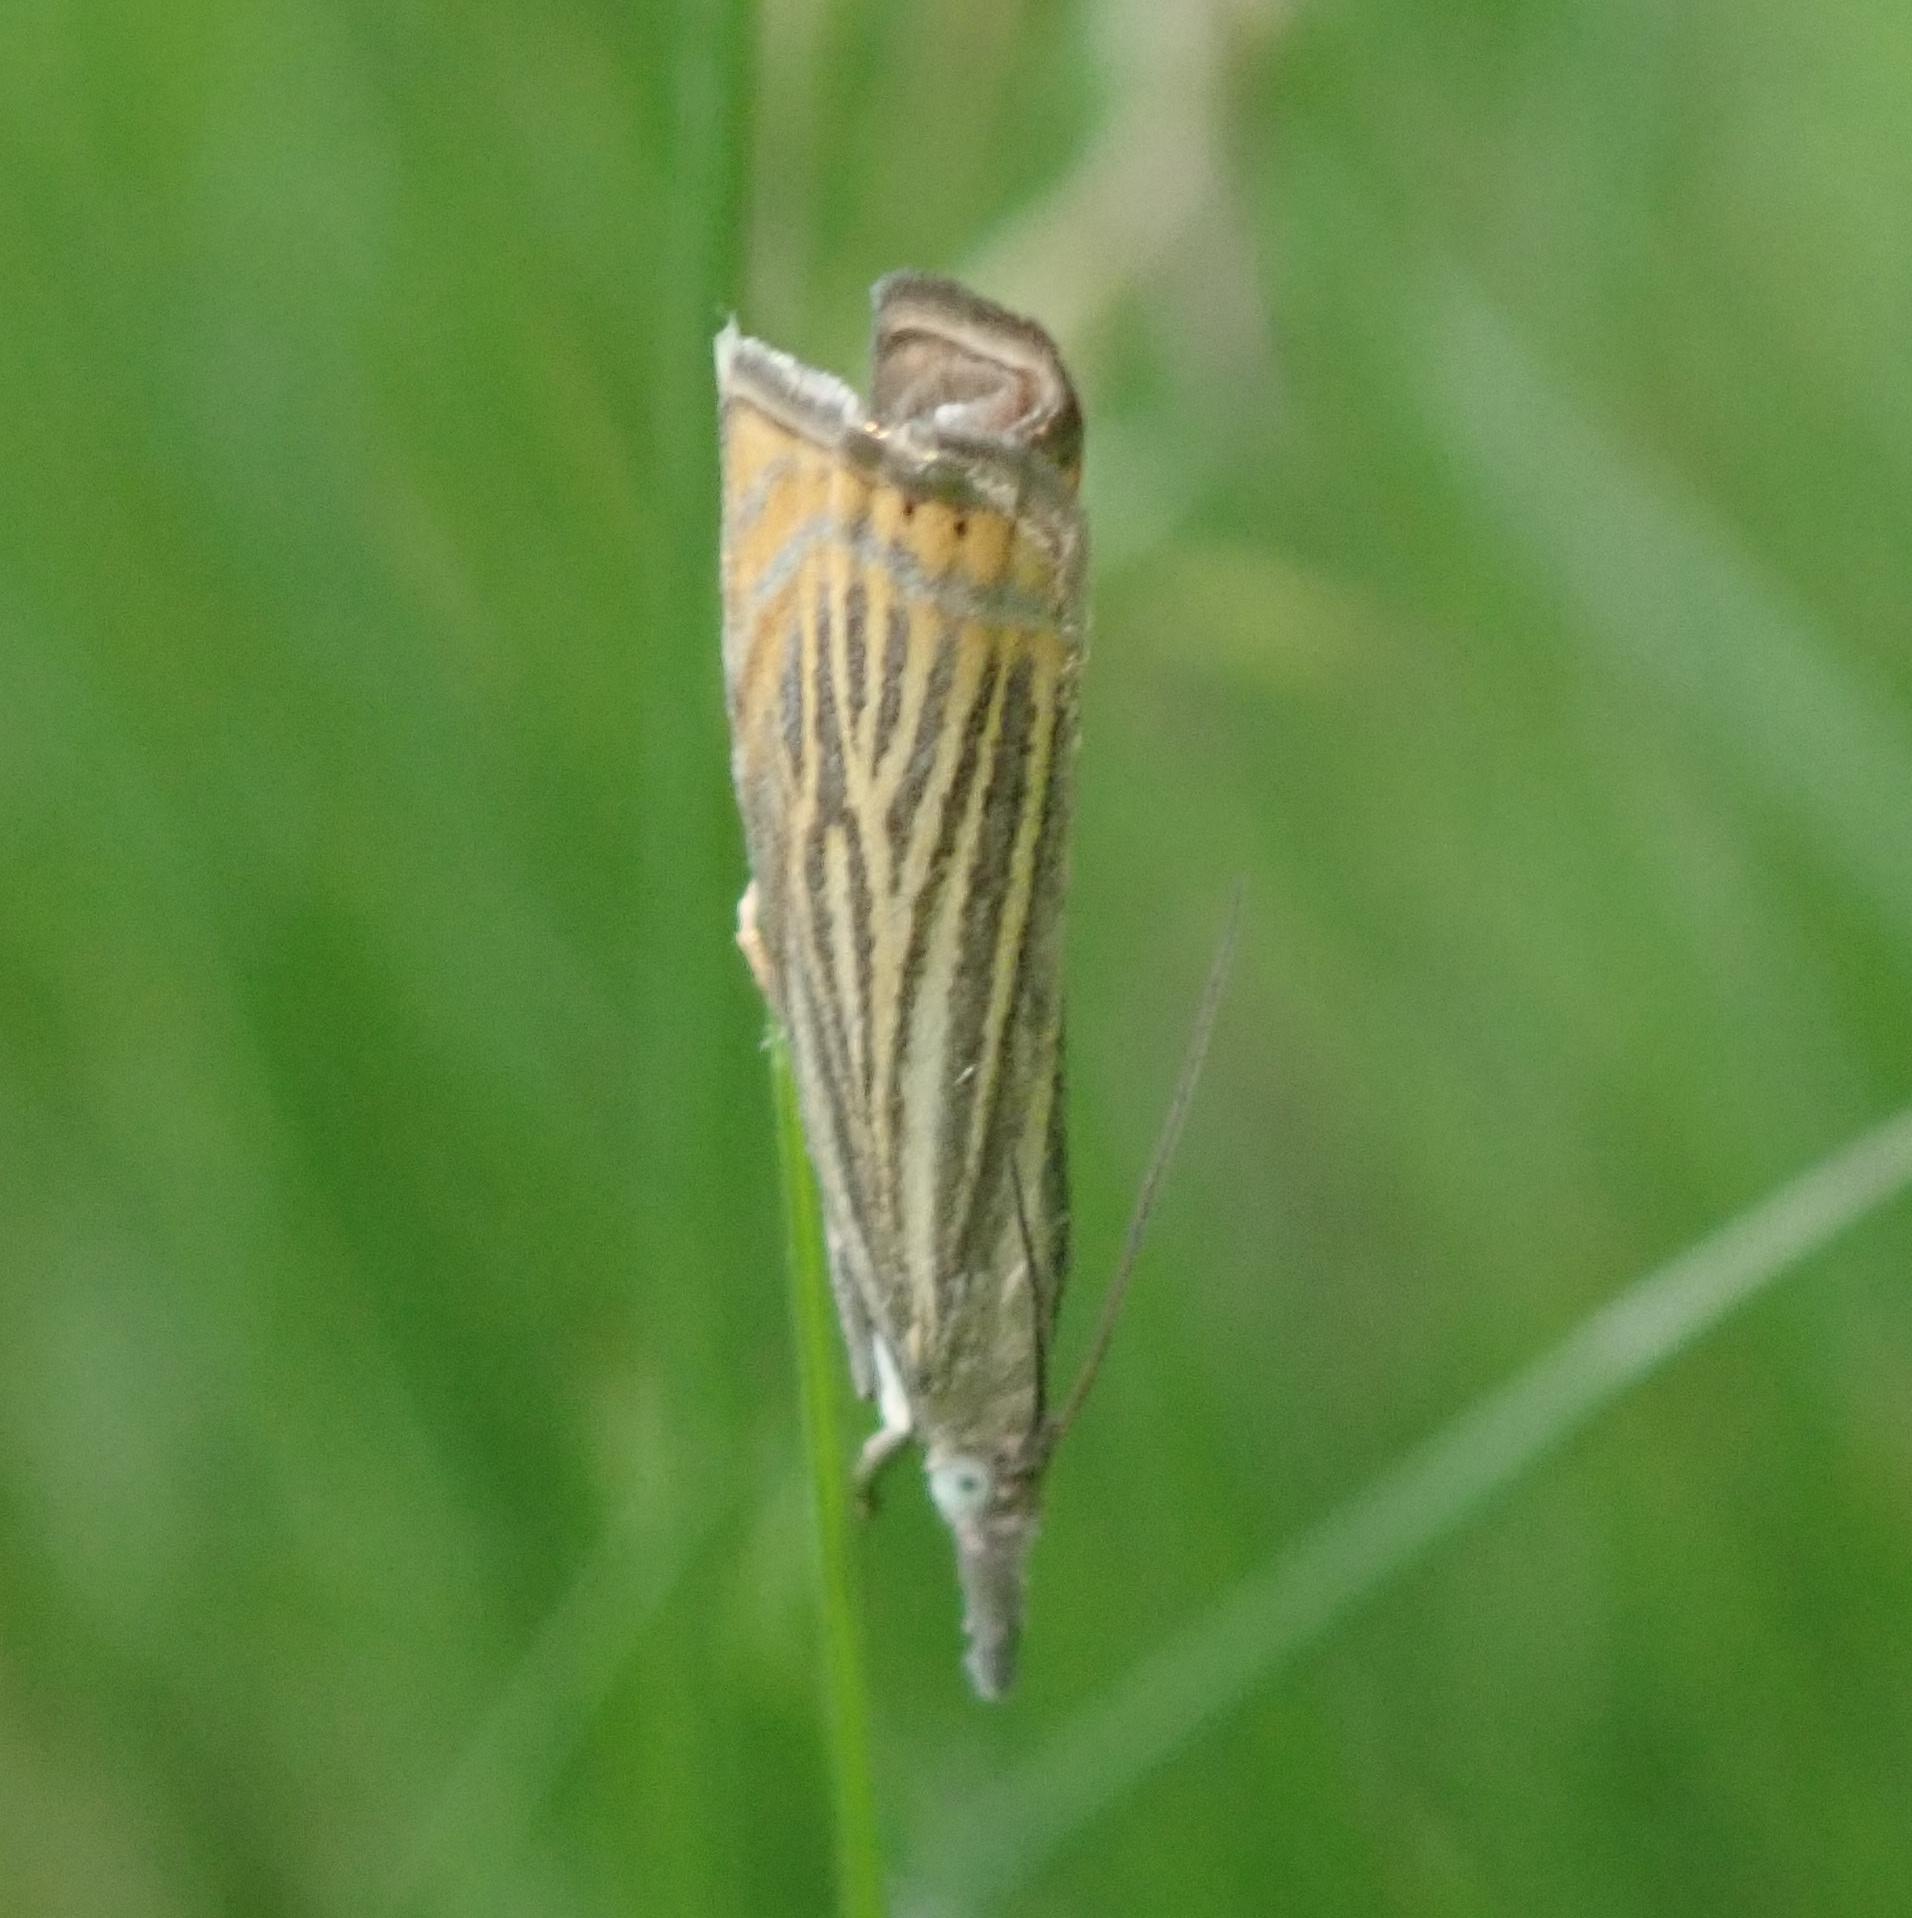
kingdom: Animalia
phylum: Arthropoda
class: Insecta
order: Lepidoptera
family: Crambidae
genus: Chrysoteuchia
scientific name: Chrysoteuchia culmella
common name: Garden grass-veneer
